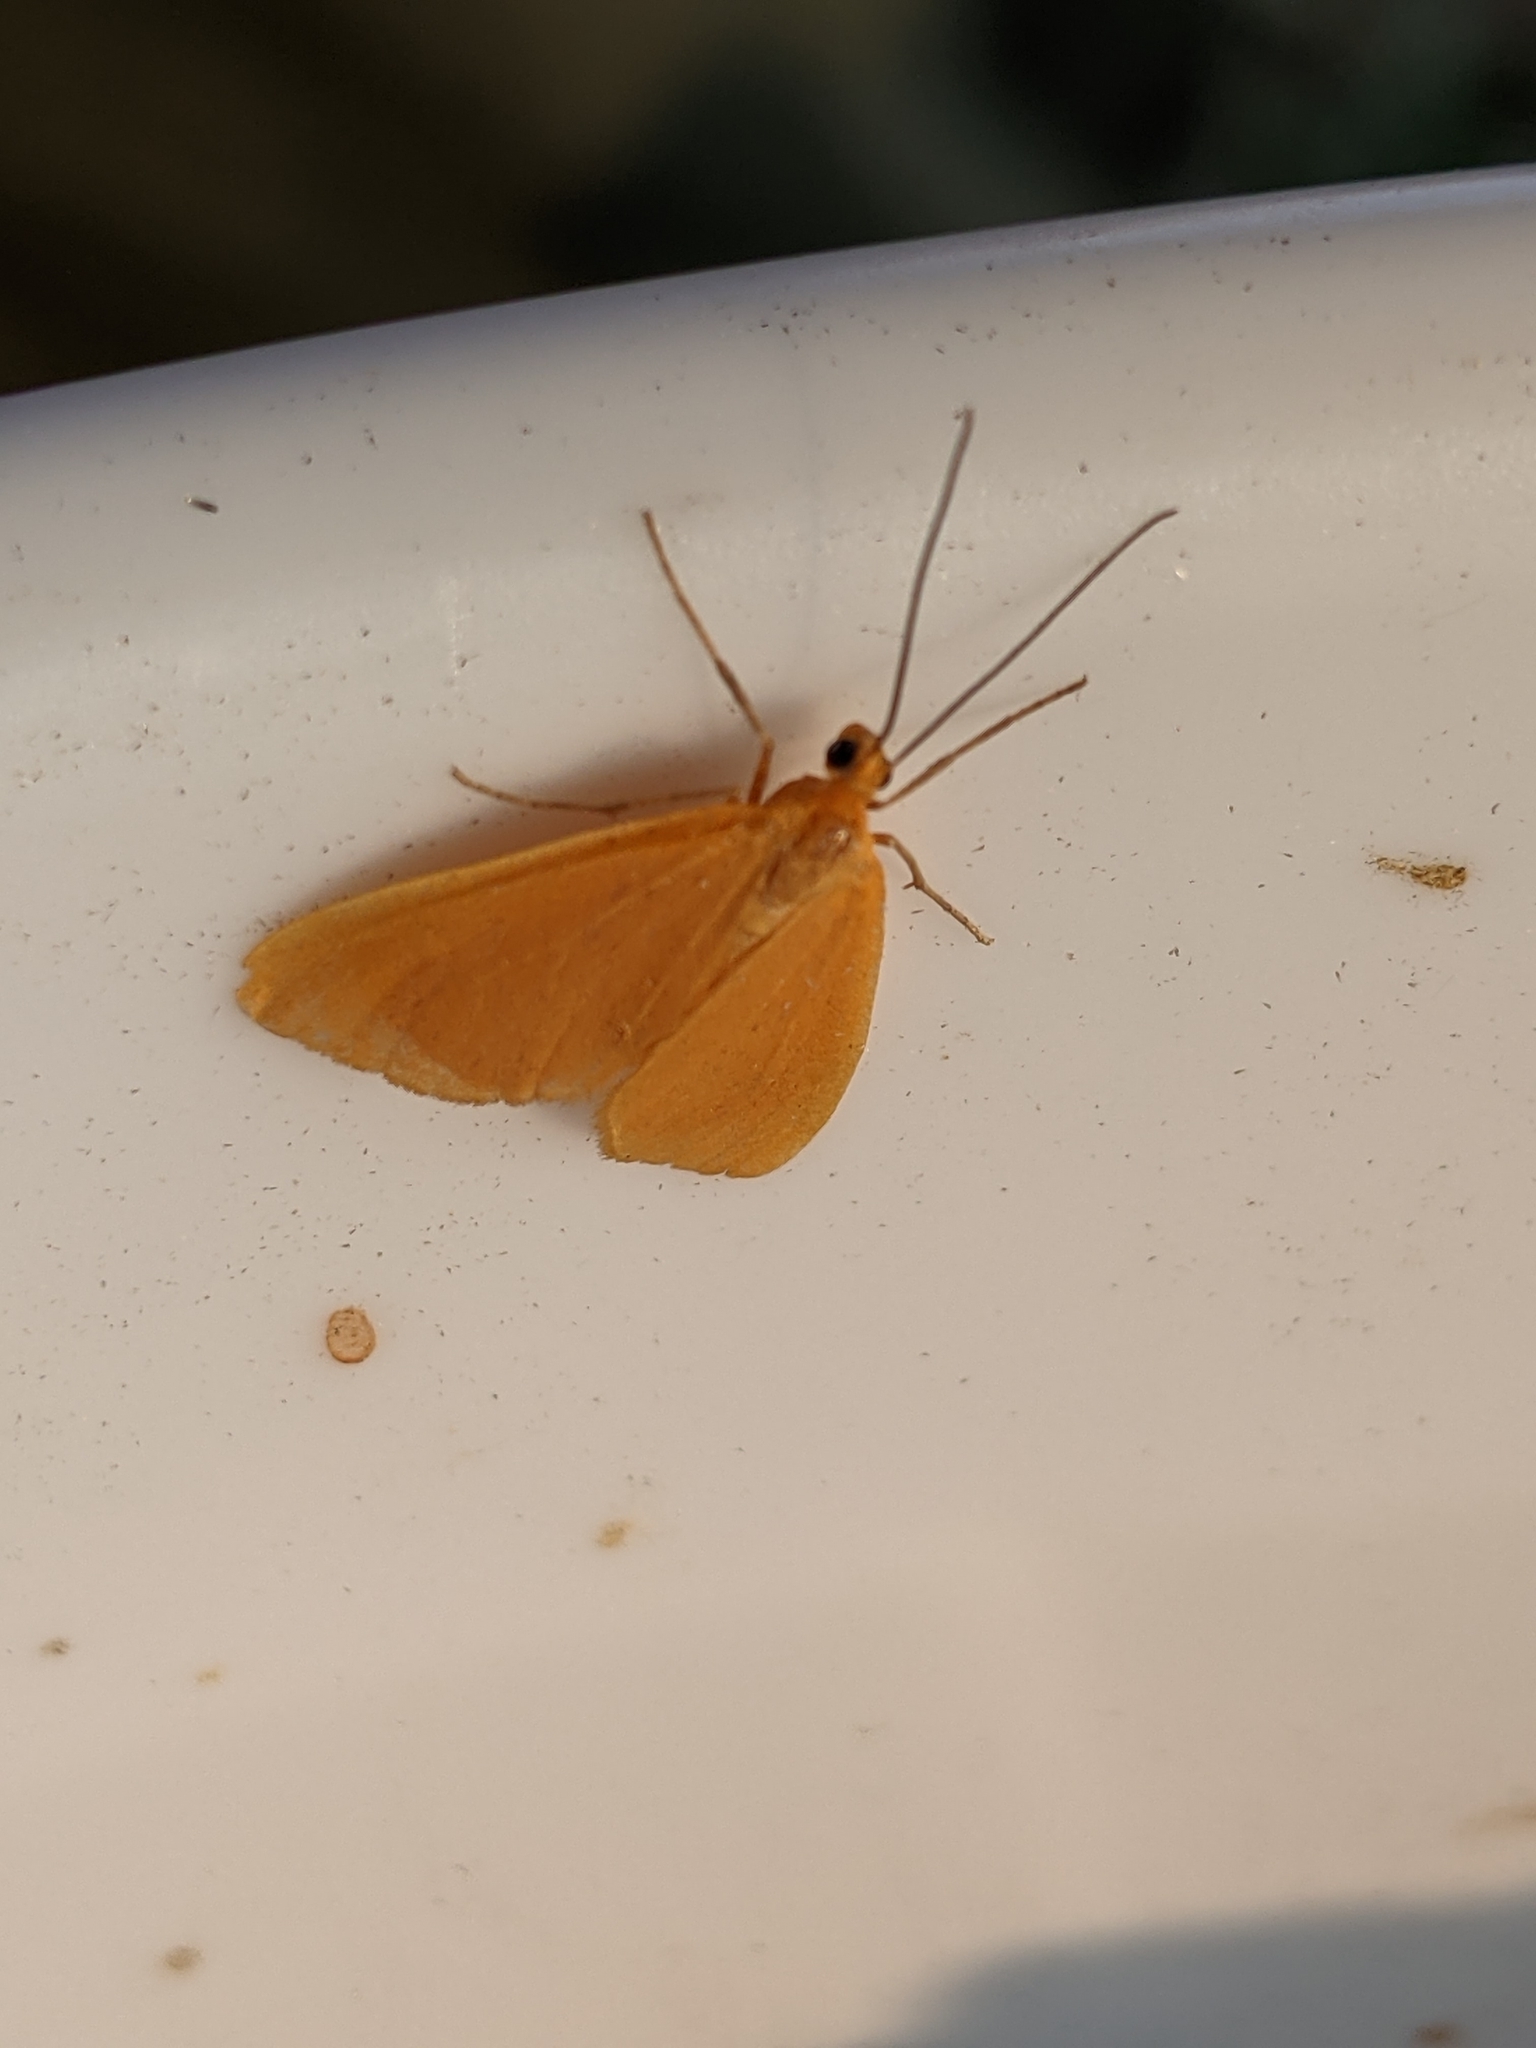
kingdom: Animalia
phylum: Arthropoda
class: Insecta
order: Lepidoptera
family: Geometridae
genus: Eubaphe
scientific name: Eubaphe unicolor
